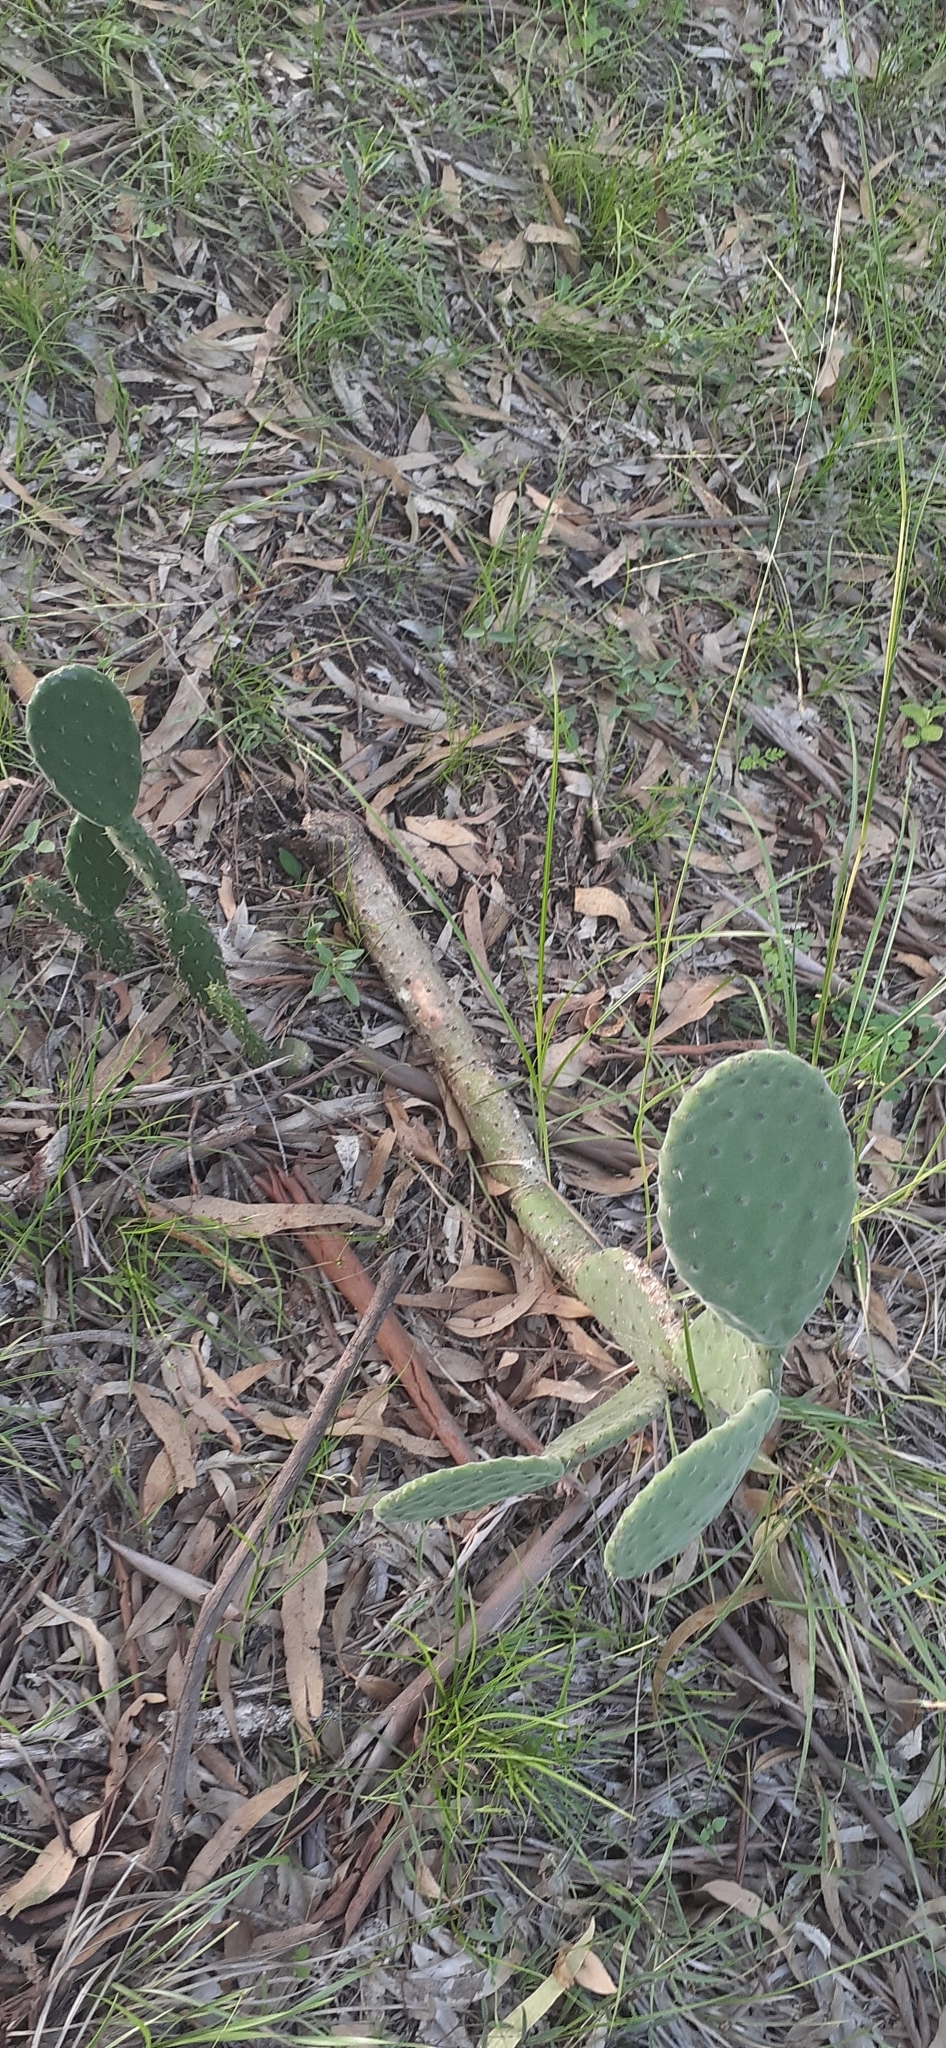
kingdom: Plantae
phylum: Tracheophyta
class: Magnoliopsida
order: Caryophyllales
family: Cactaceae
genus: Opuntia
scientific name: Opuntia tomentosa
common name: Woollyjoint pricklypear
